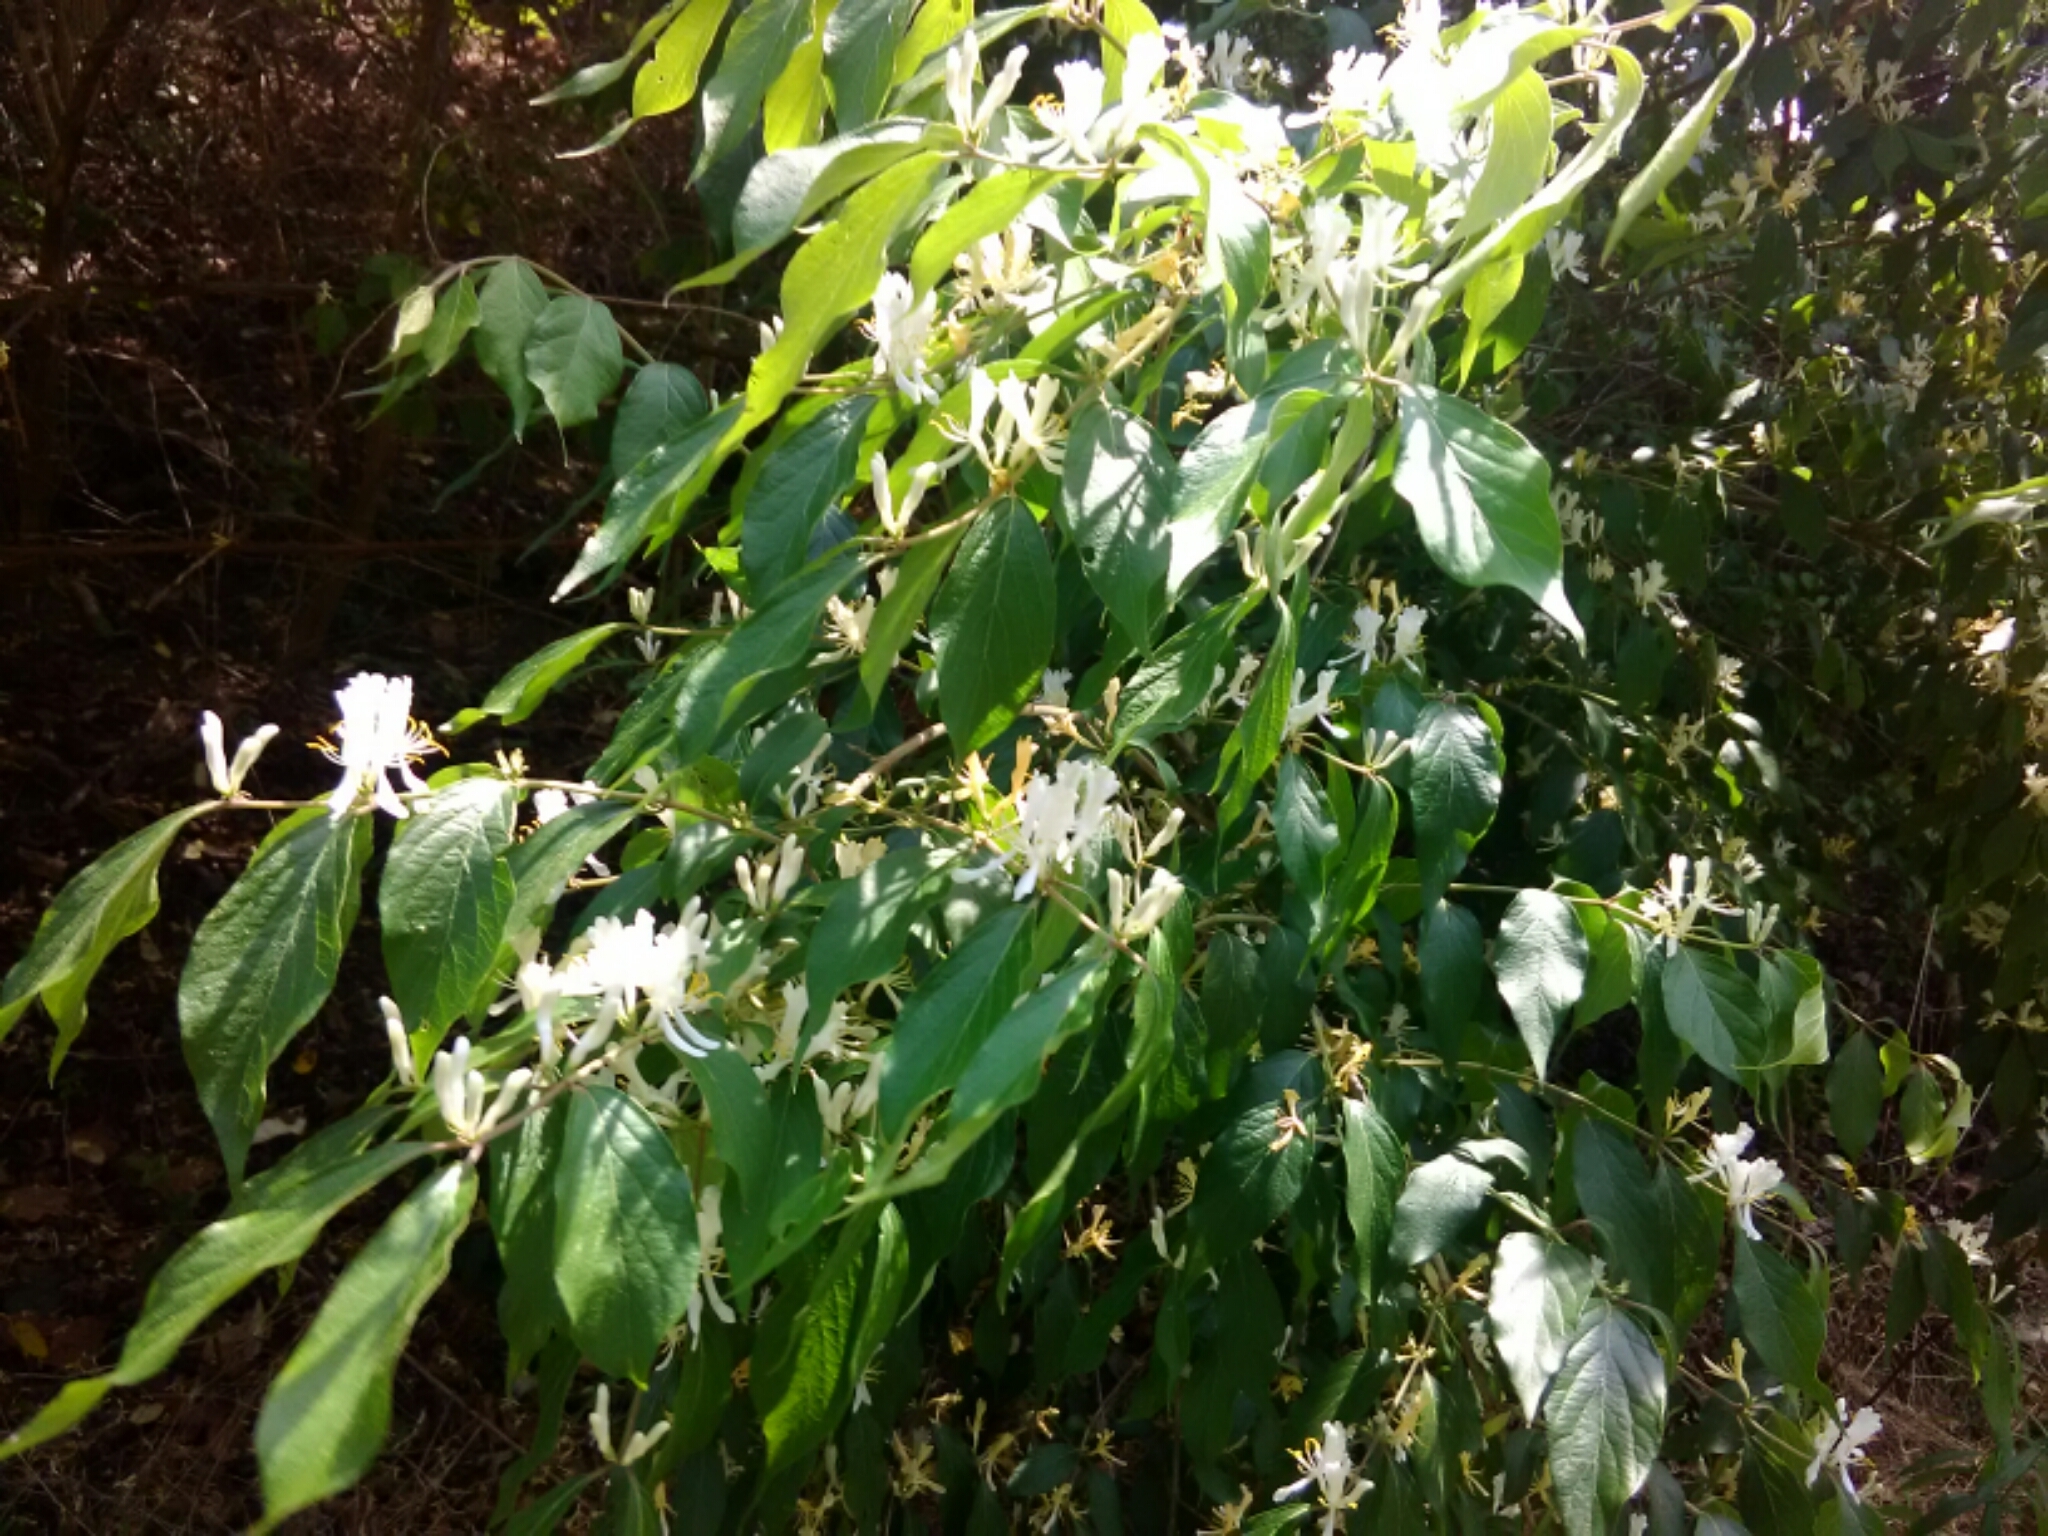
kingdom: Plantae
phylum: Tracheophyta
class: Magnoliopsida
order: Dipsacales
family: Caprifoliaceae
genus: Lonicera
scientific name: Lonicera japonica
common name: Japanese honeysuckle
